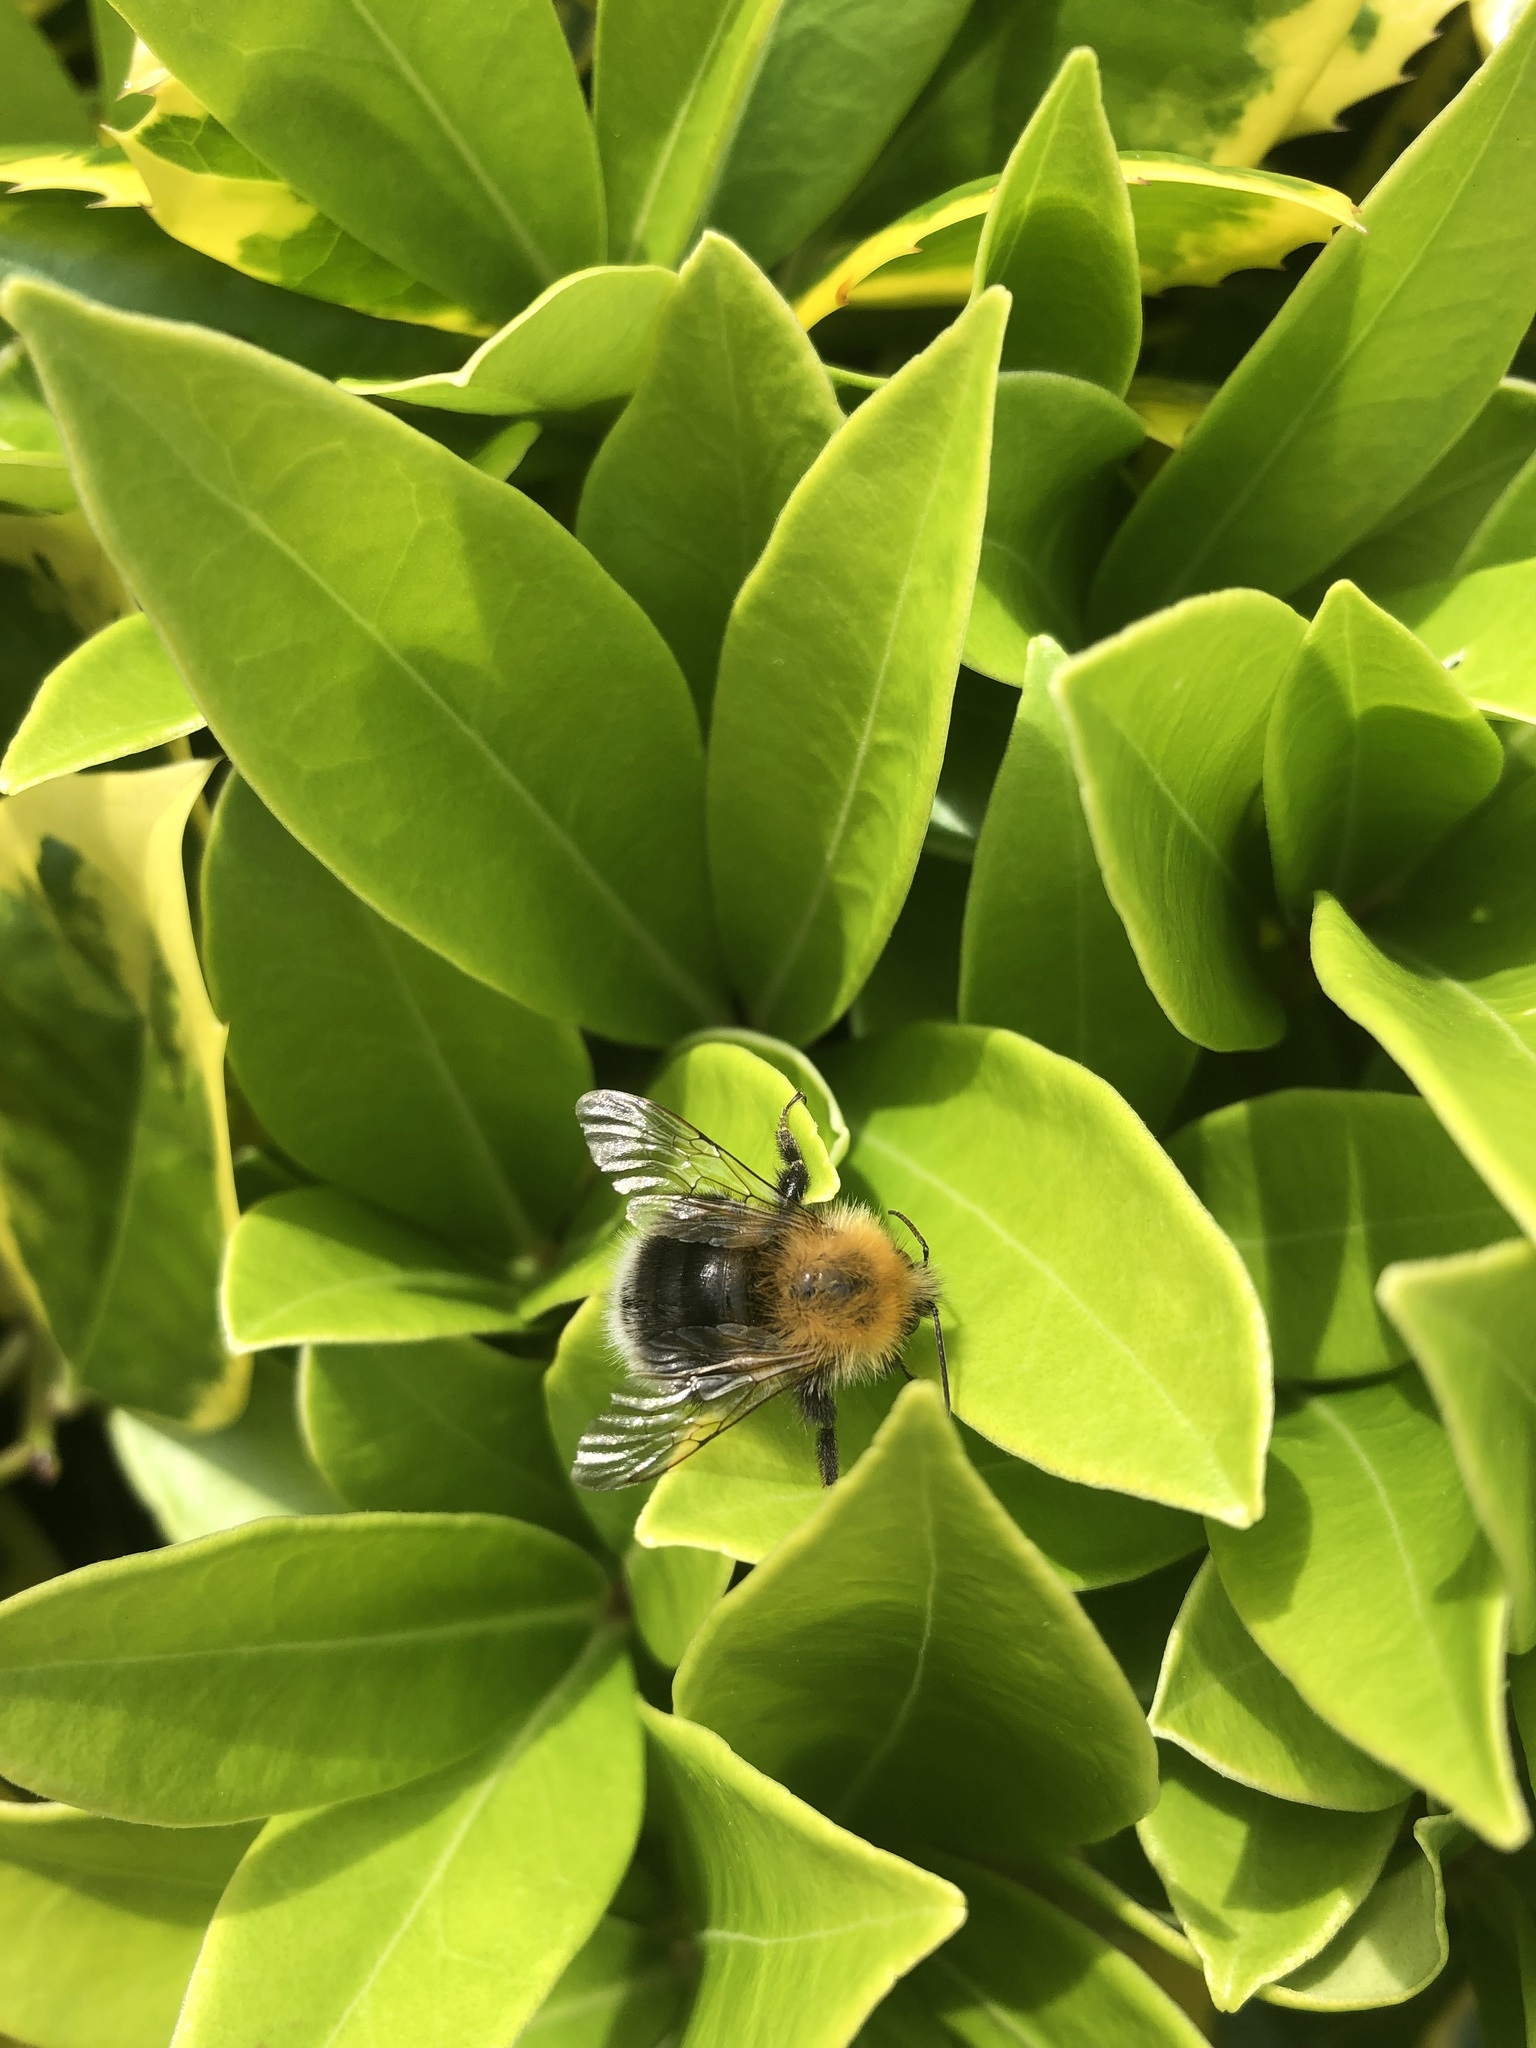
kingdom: Animalia
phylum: Arthropoda
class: Insecta
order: Hymenoptera
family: Apidae
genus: Bombus
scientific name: Bombus hypnorum
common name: New garden bumblebee
